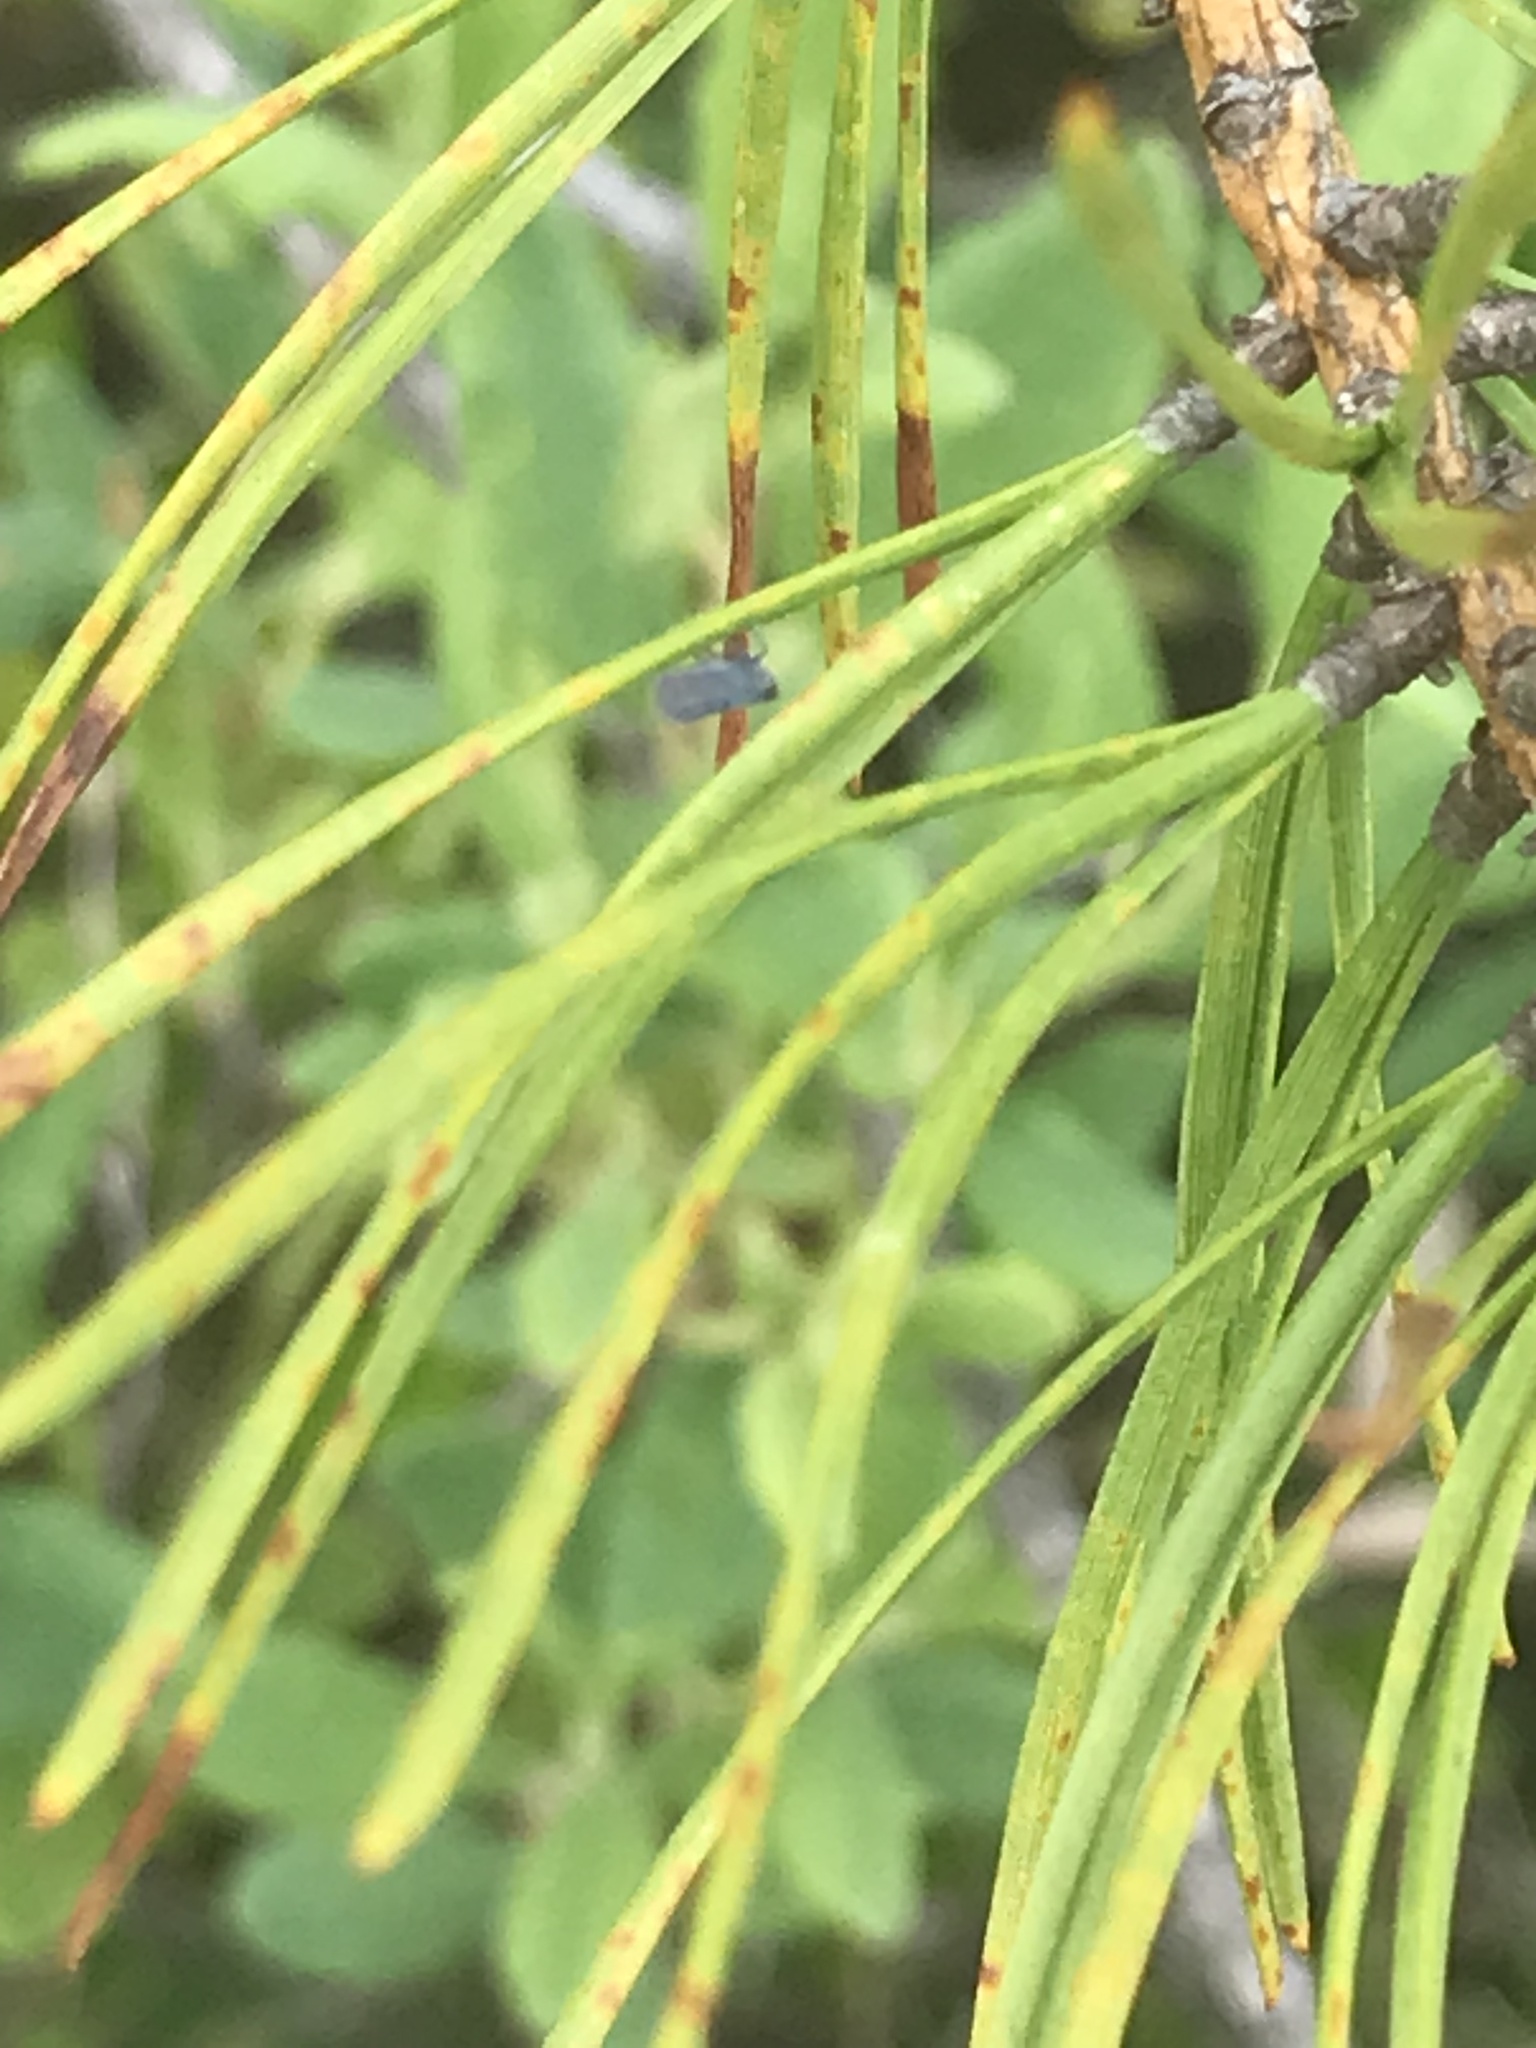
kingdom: Plantae
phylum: Tracheophyta
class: Pinopsida
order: Pinales
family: Pinaceae
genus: Pinus
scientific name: Pinus rigida
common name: Pitch pine
